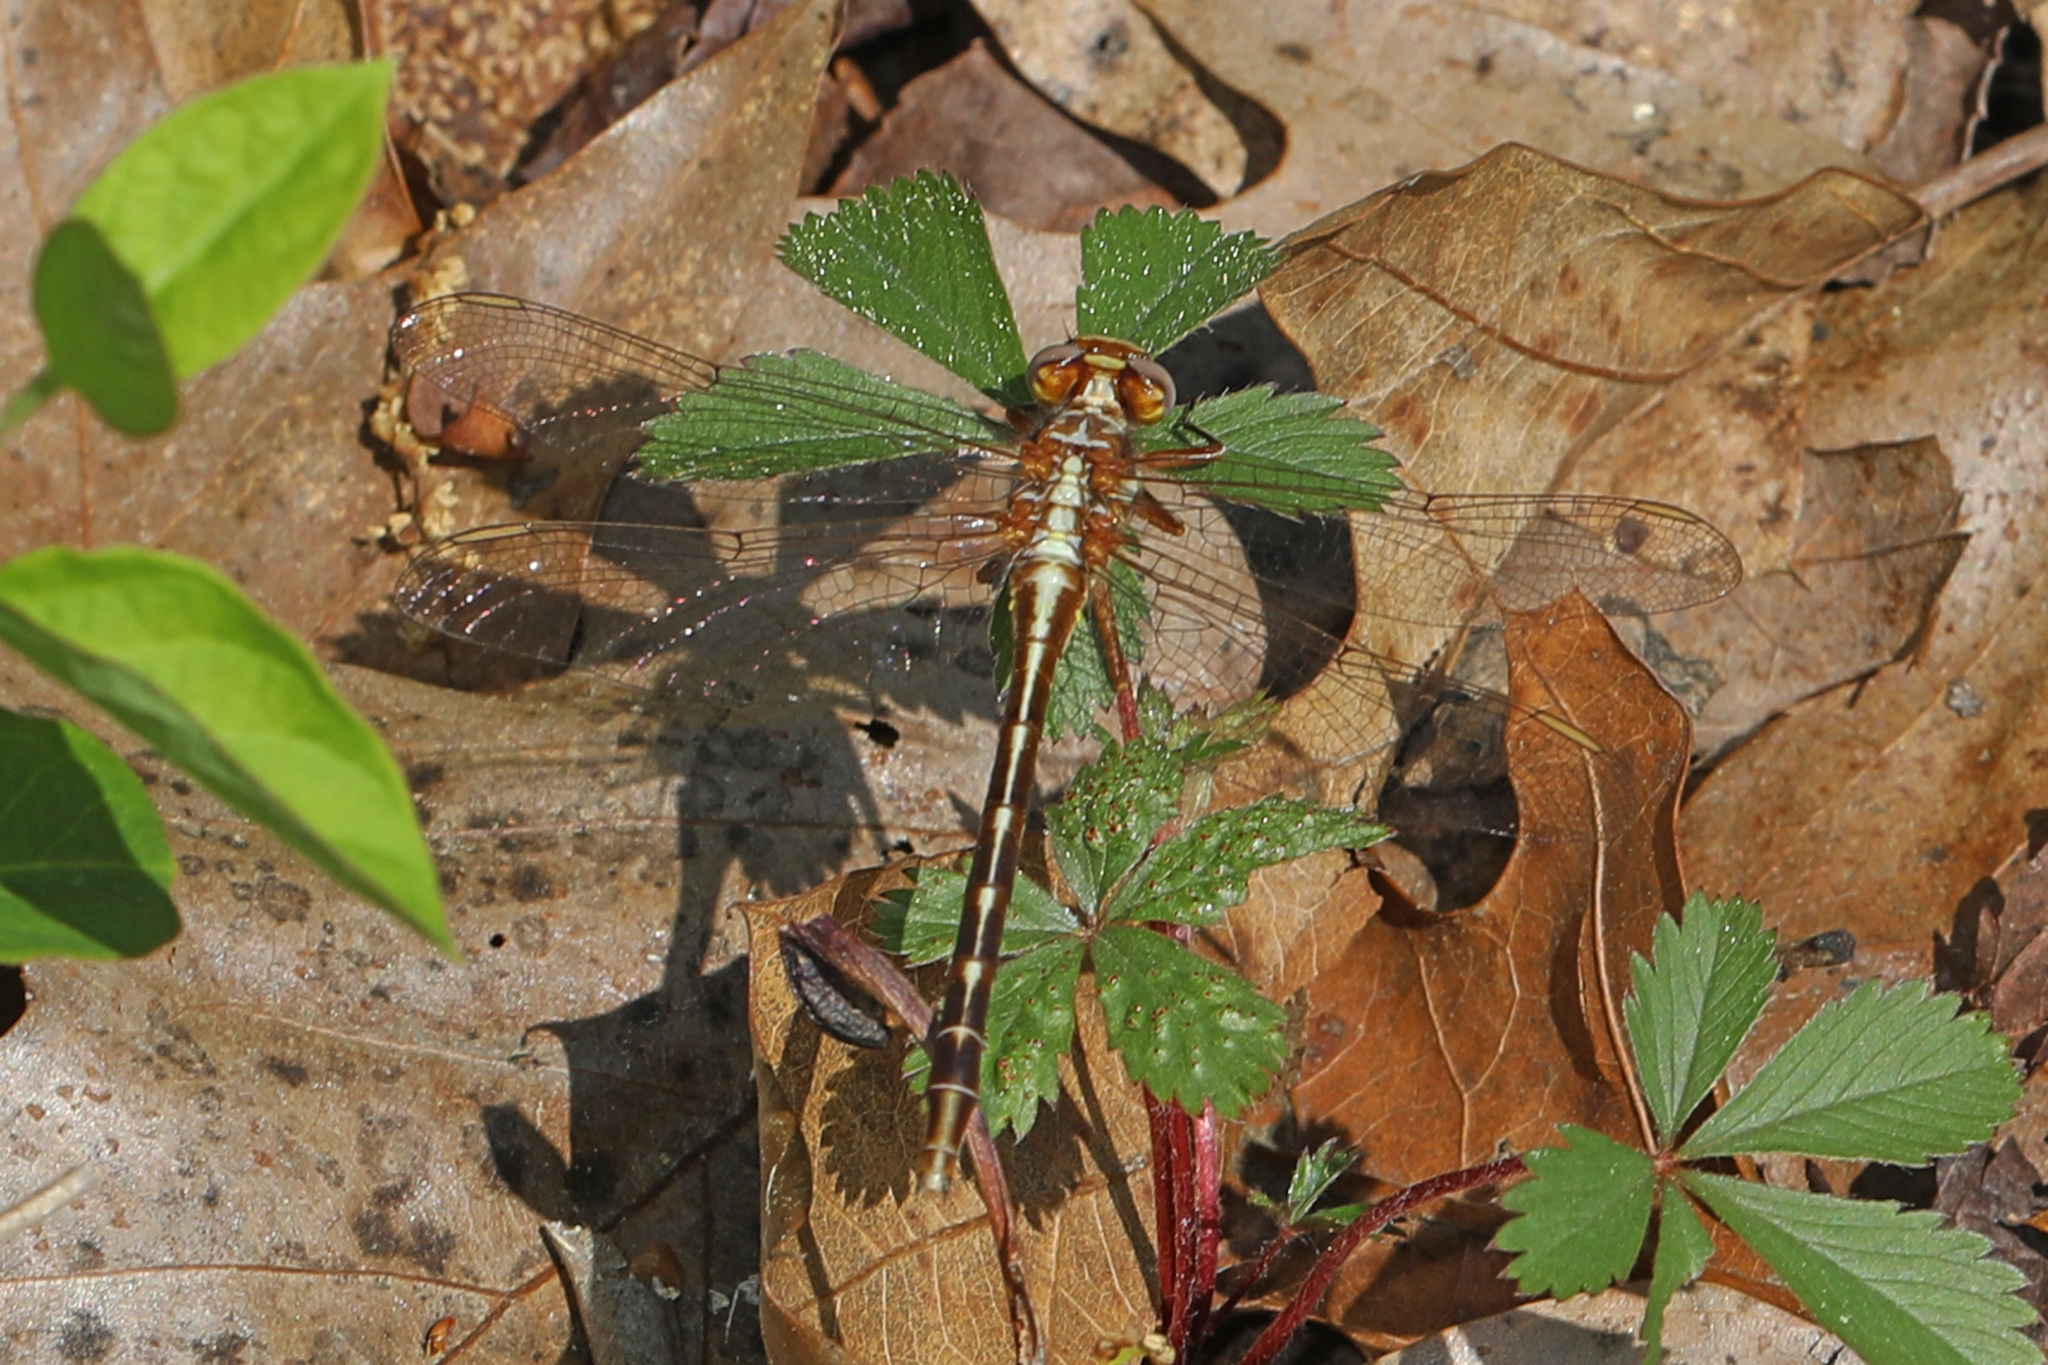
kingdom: Animalia
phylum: Arthropoda
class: Insecta
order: Odonata
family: Gomphidae
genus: Phanogomphus
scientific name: Phanogomphus lividus
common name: Ashy clubtail
